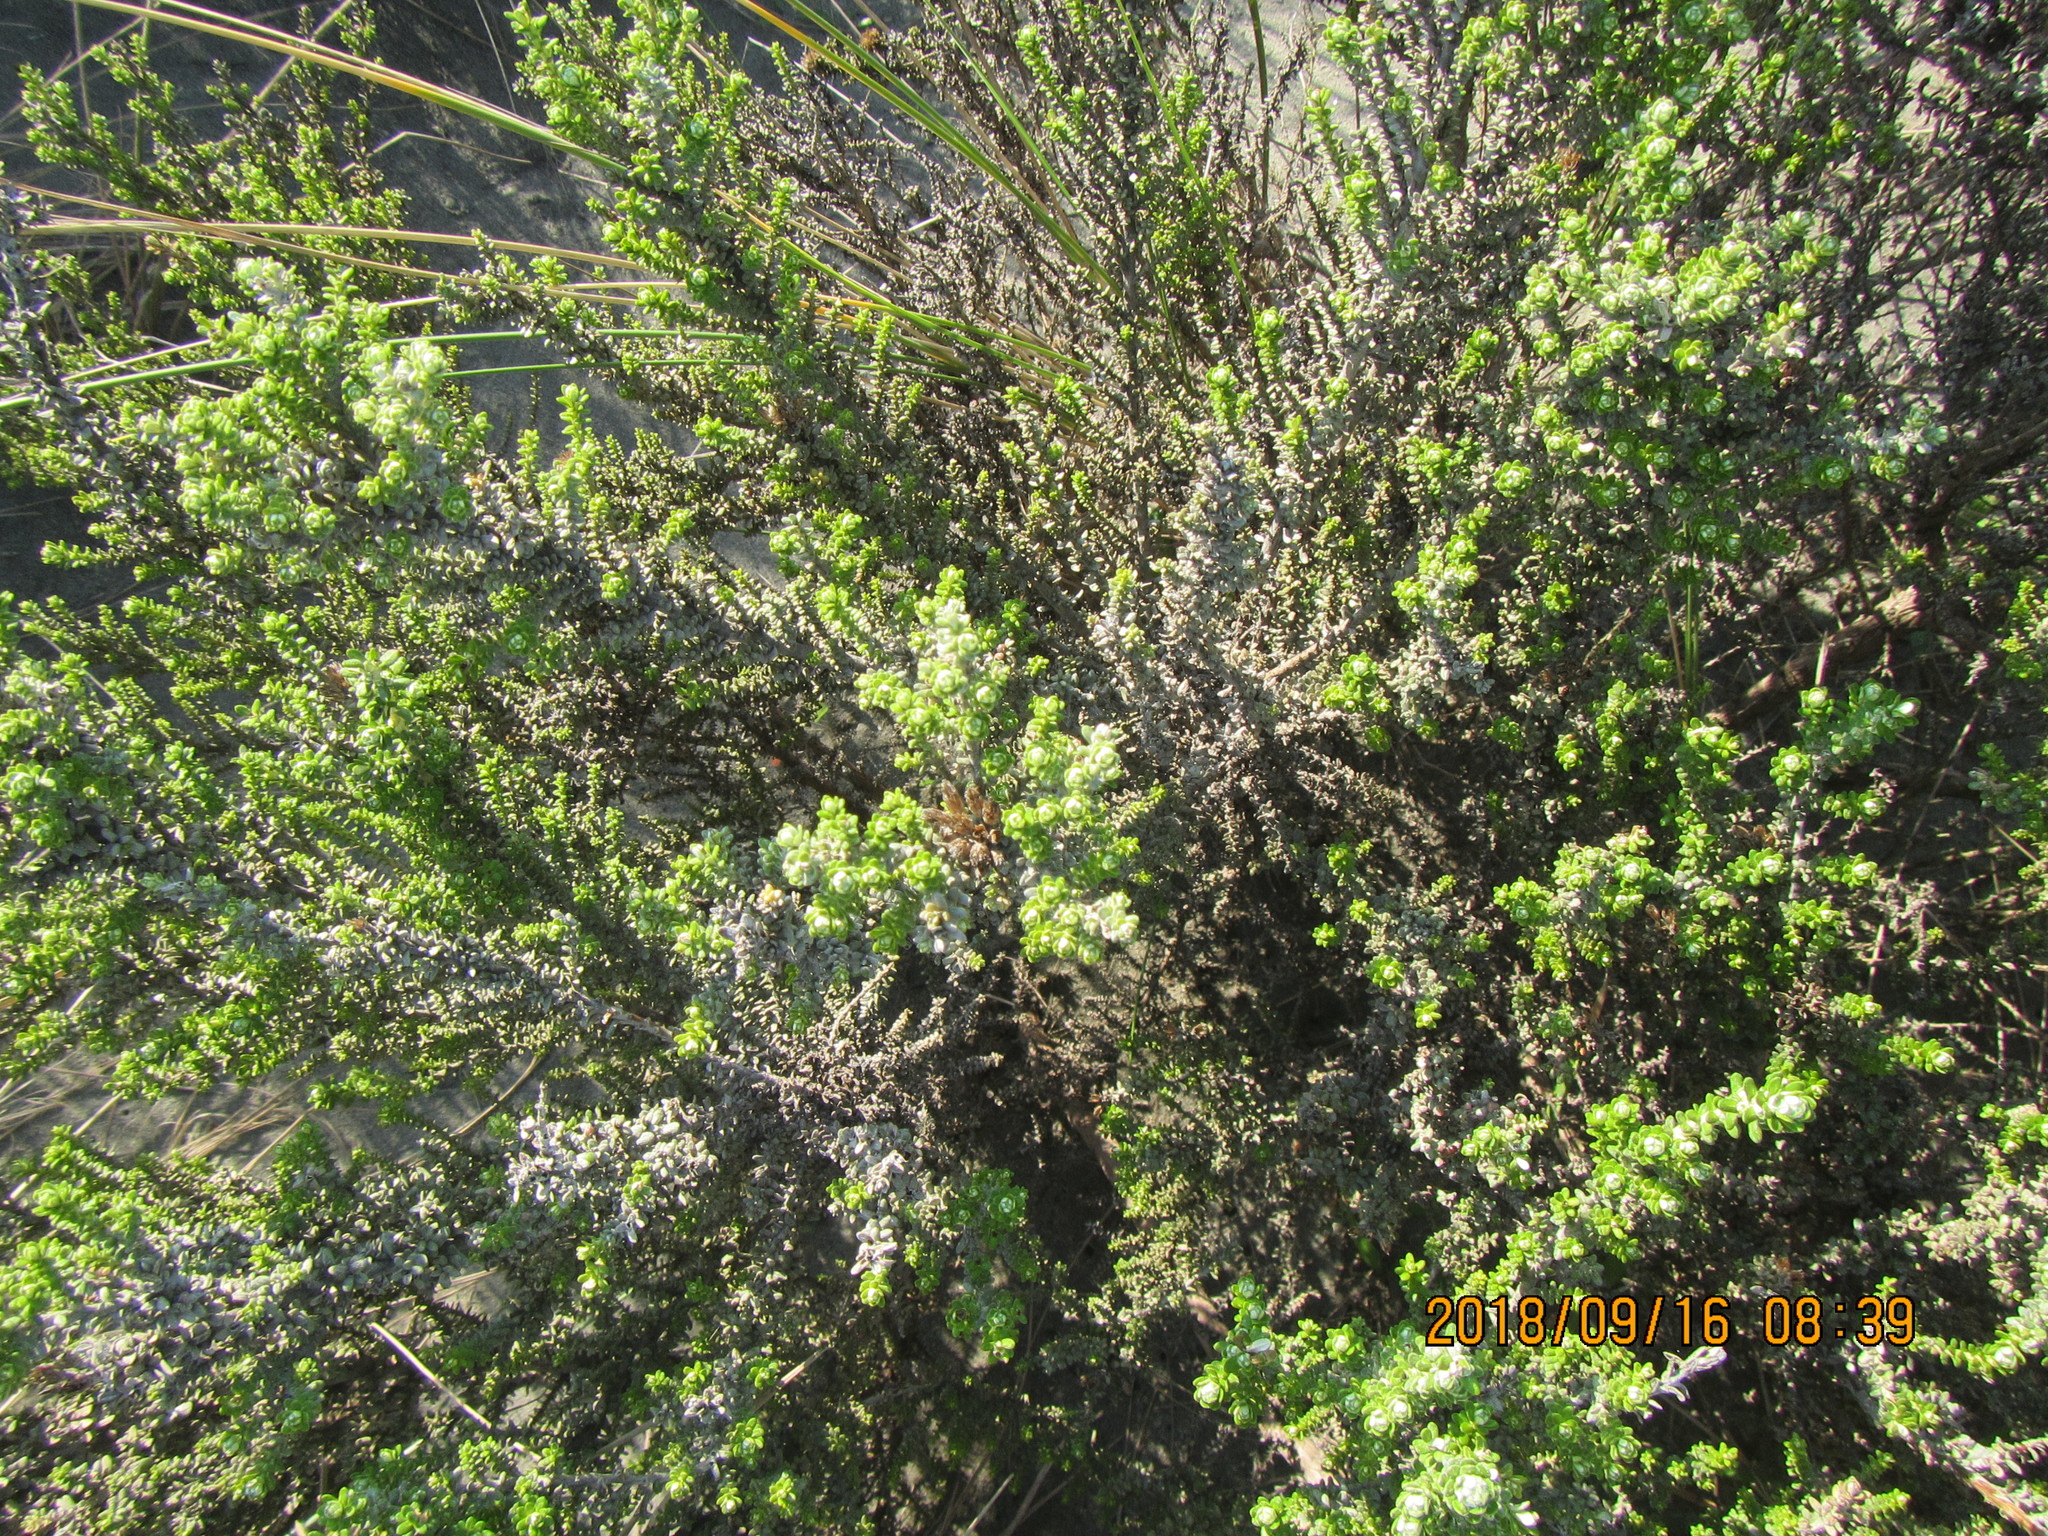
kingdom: Plantae
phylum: Tracheophyta
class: Magnoliopsida
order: Asterales
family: Asteraceae
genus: Ozothamnus
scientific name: Ozothamnus leptophyllus
